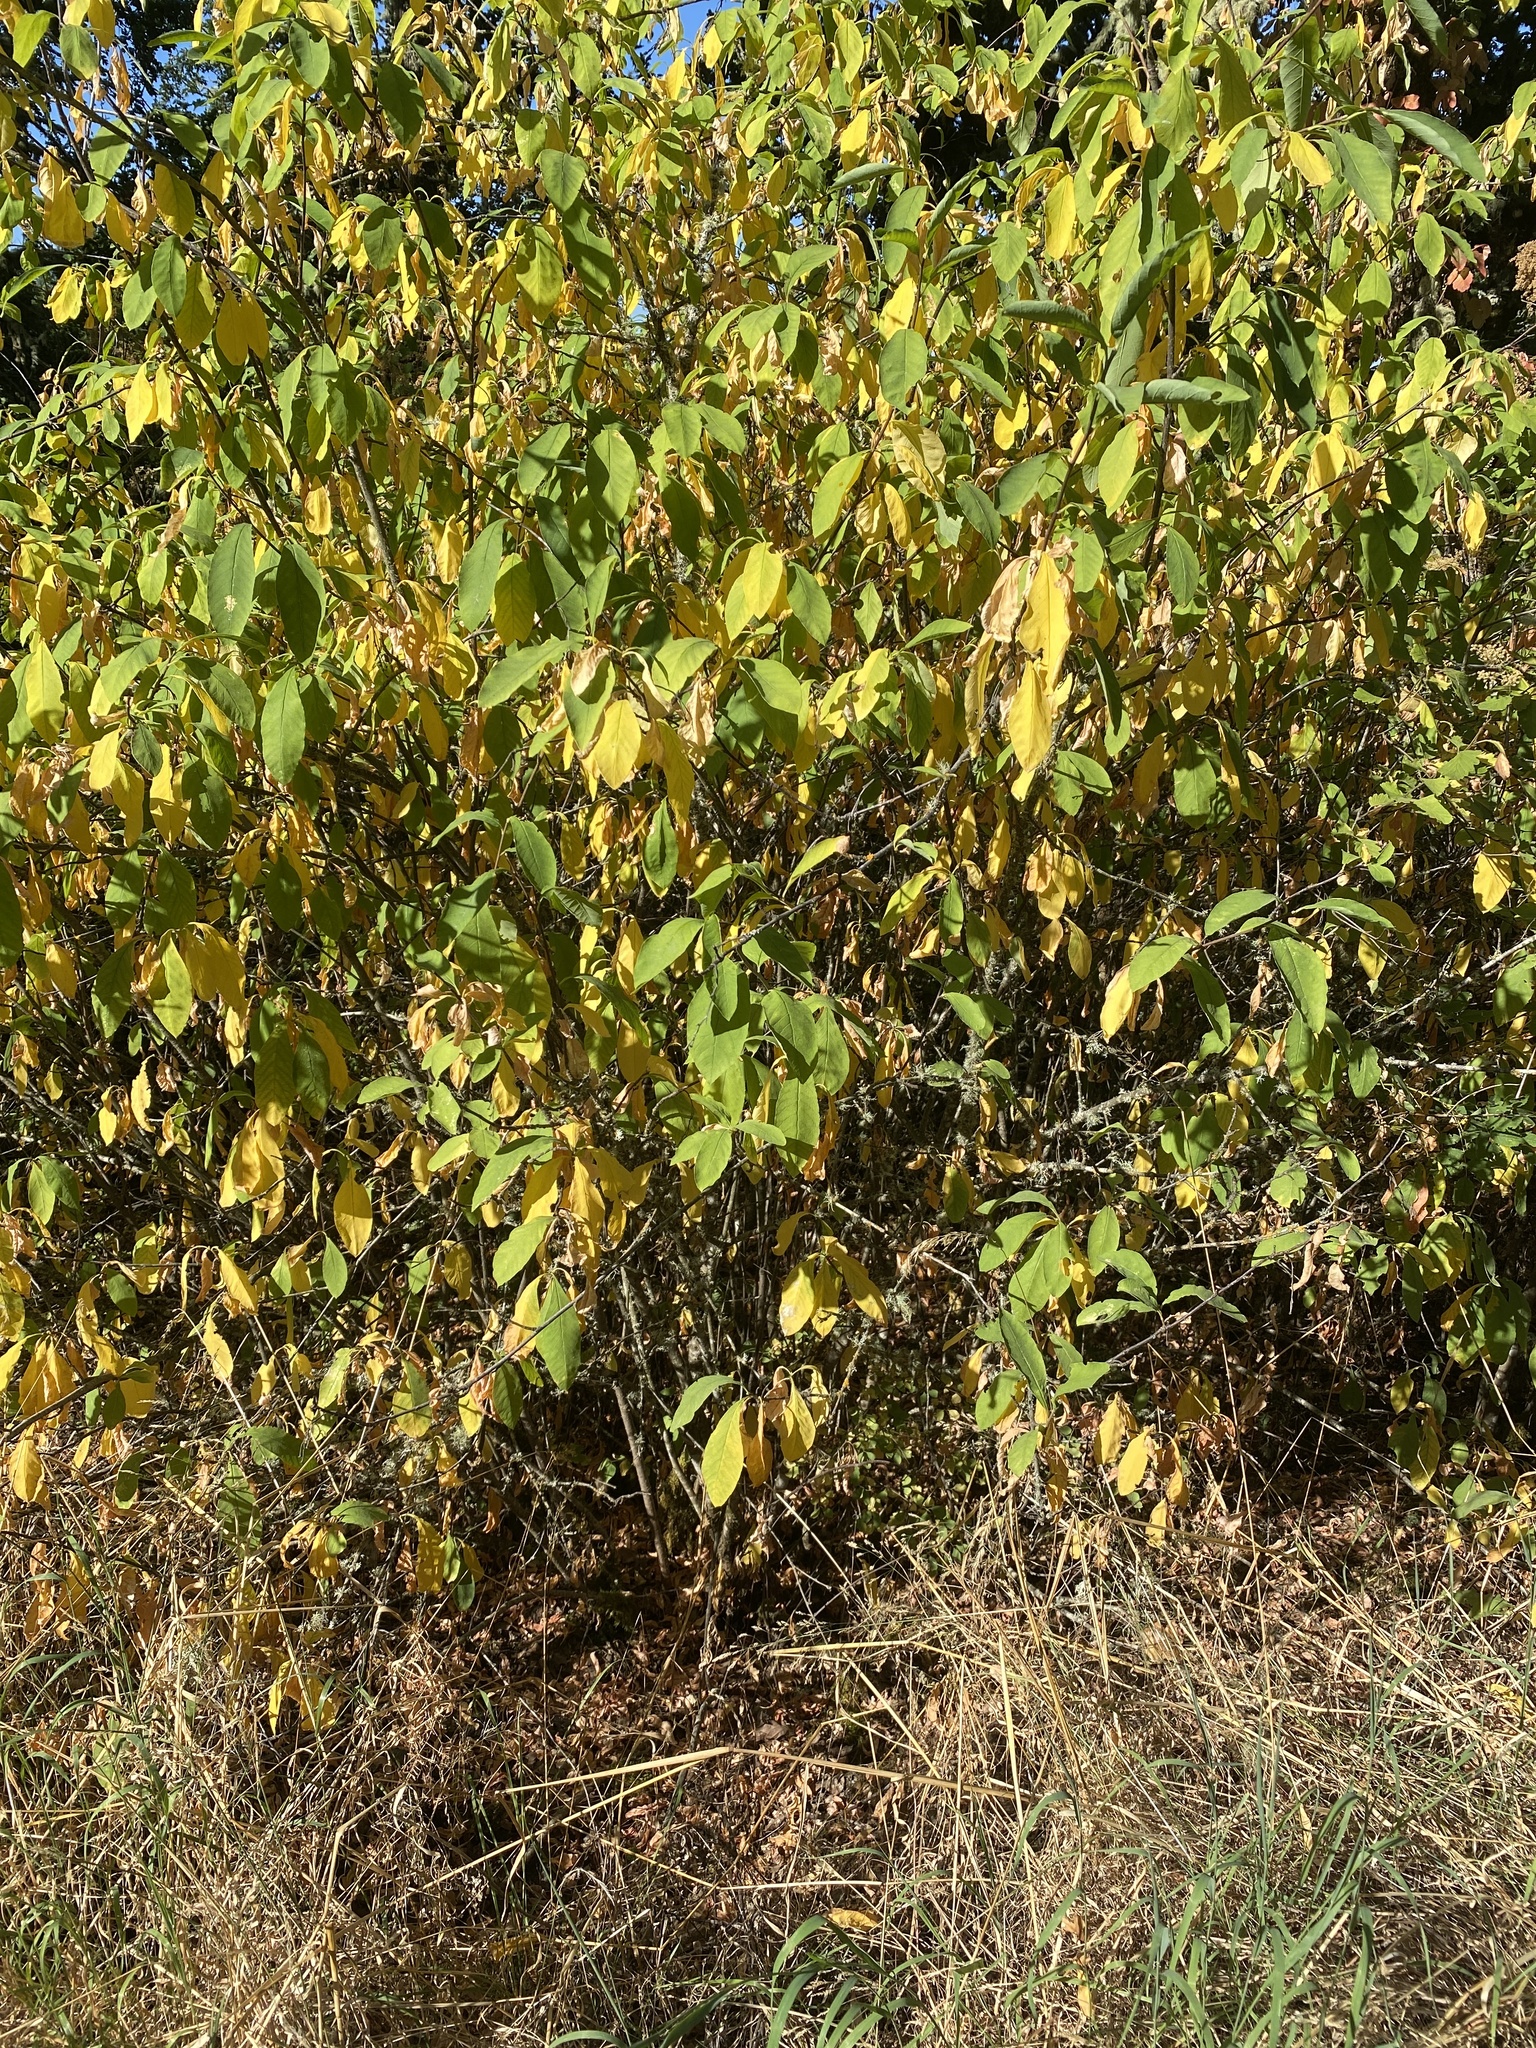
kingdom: Plantae
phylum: Tracheophyta
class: Magnoliopsida
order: Rosales
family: Rosaceae
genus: Oemleria
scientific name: Oemleria cerasiformis
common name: Osoberry
